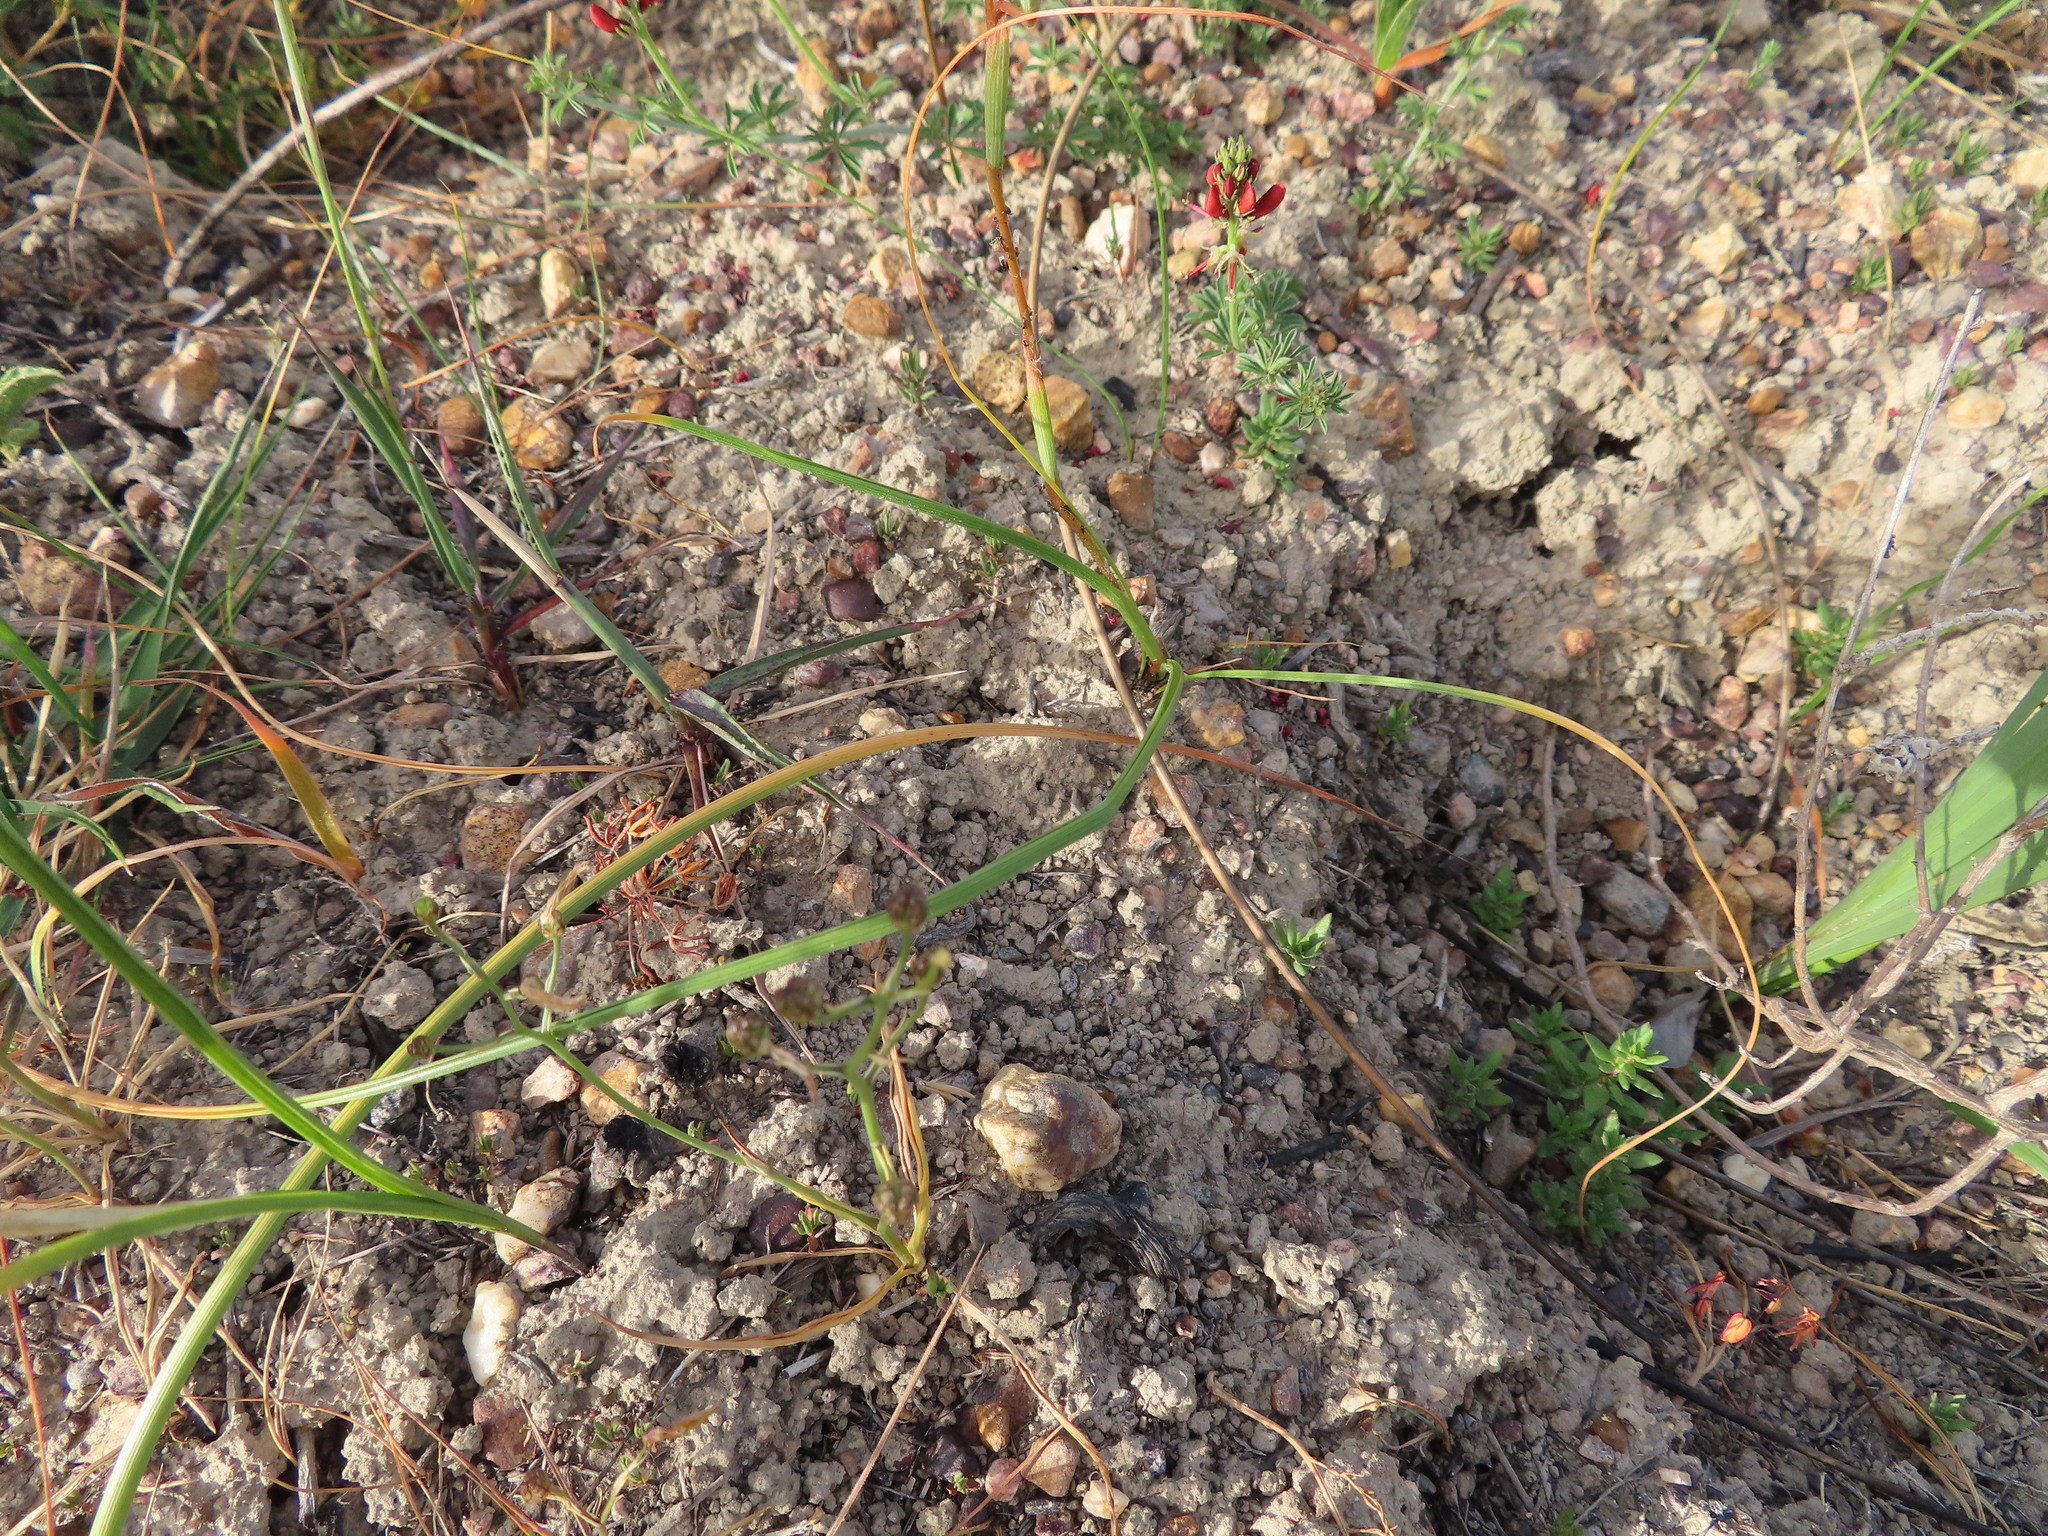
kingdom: Plantae
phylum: Tracheophyta
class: Liliopsida
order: Asparagales
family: Iridaceae
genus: Moraea
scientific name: Moraea bituminosa
